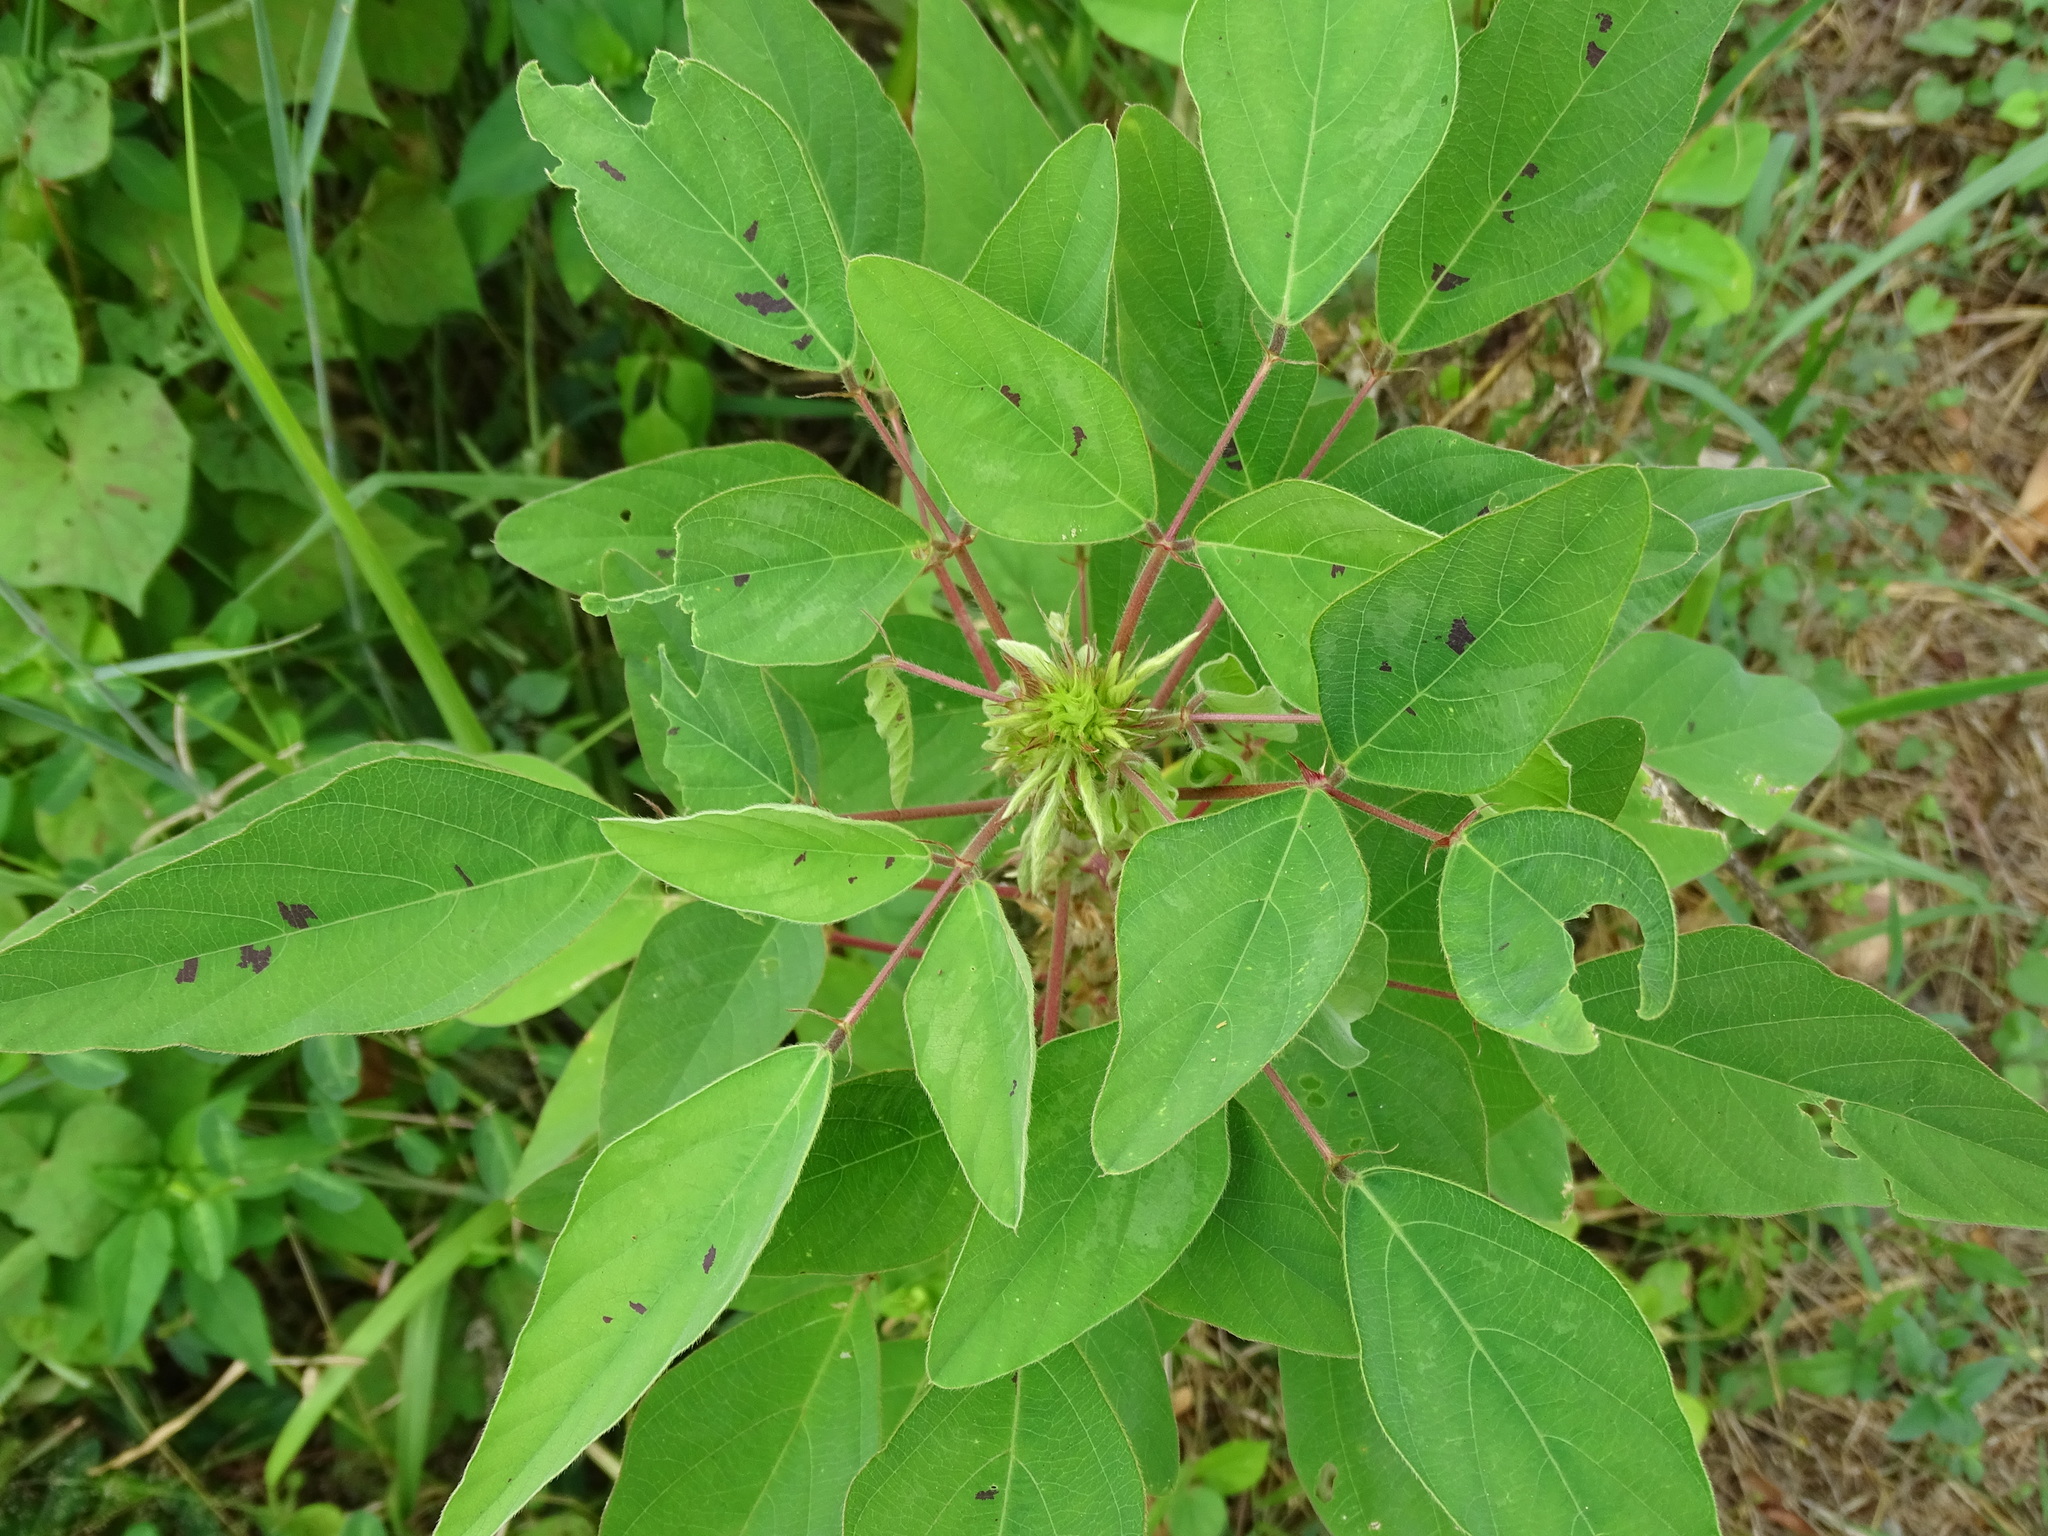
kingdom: Plantae
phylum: Tracheophyta
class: Magnoliopsida
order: Fabales
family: Fabaceae
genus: Desmodium
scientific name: Desmodium tortuosum
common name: Dixie ticktrefoil
